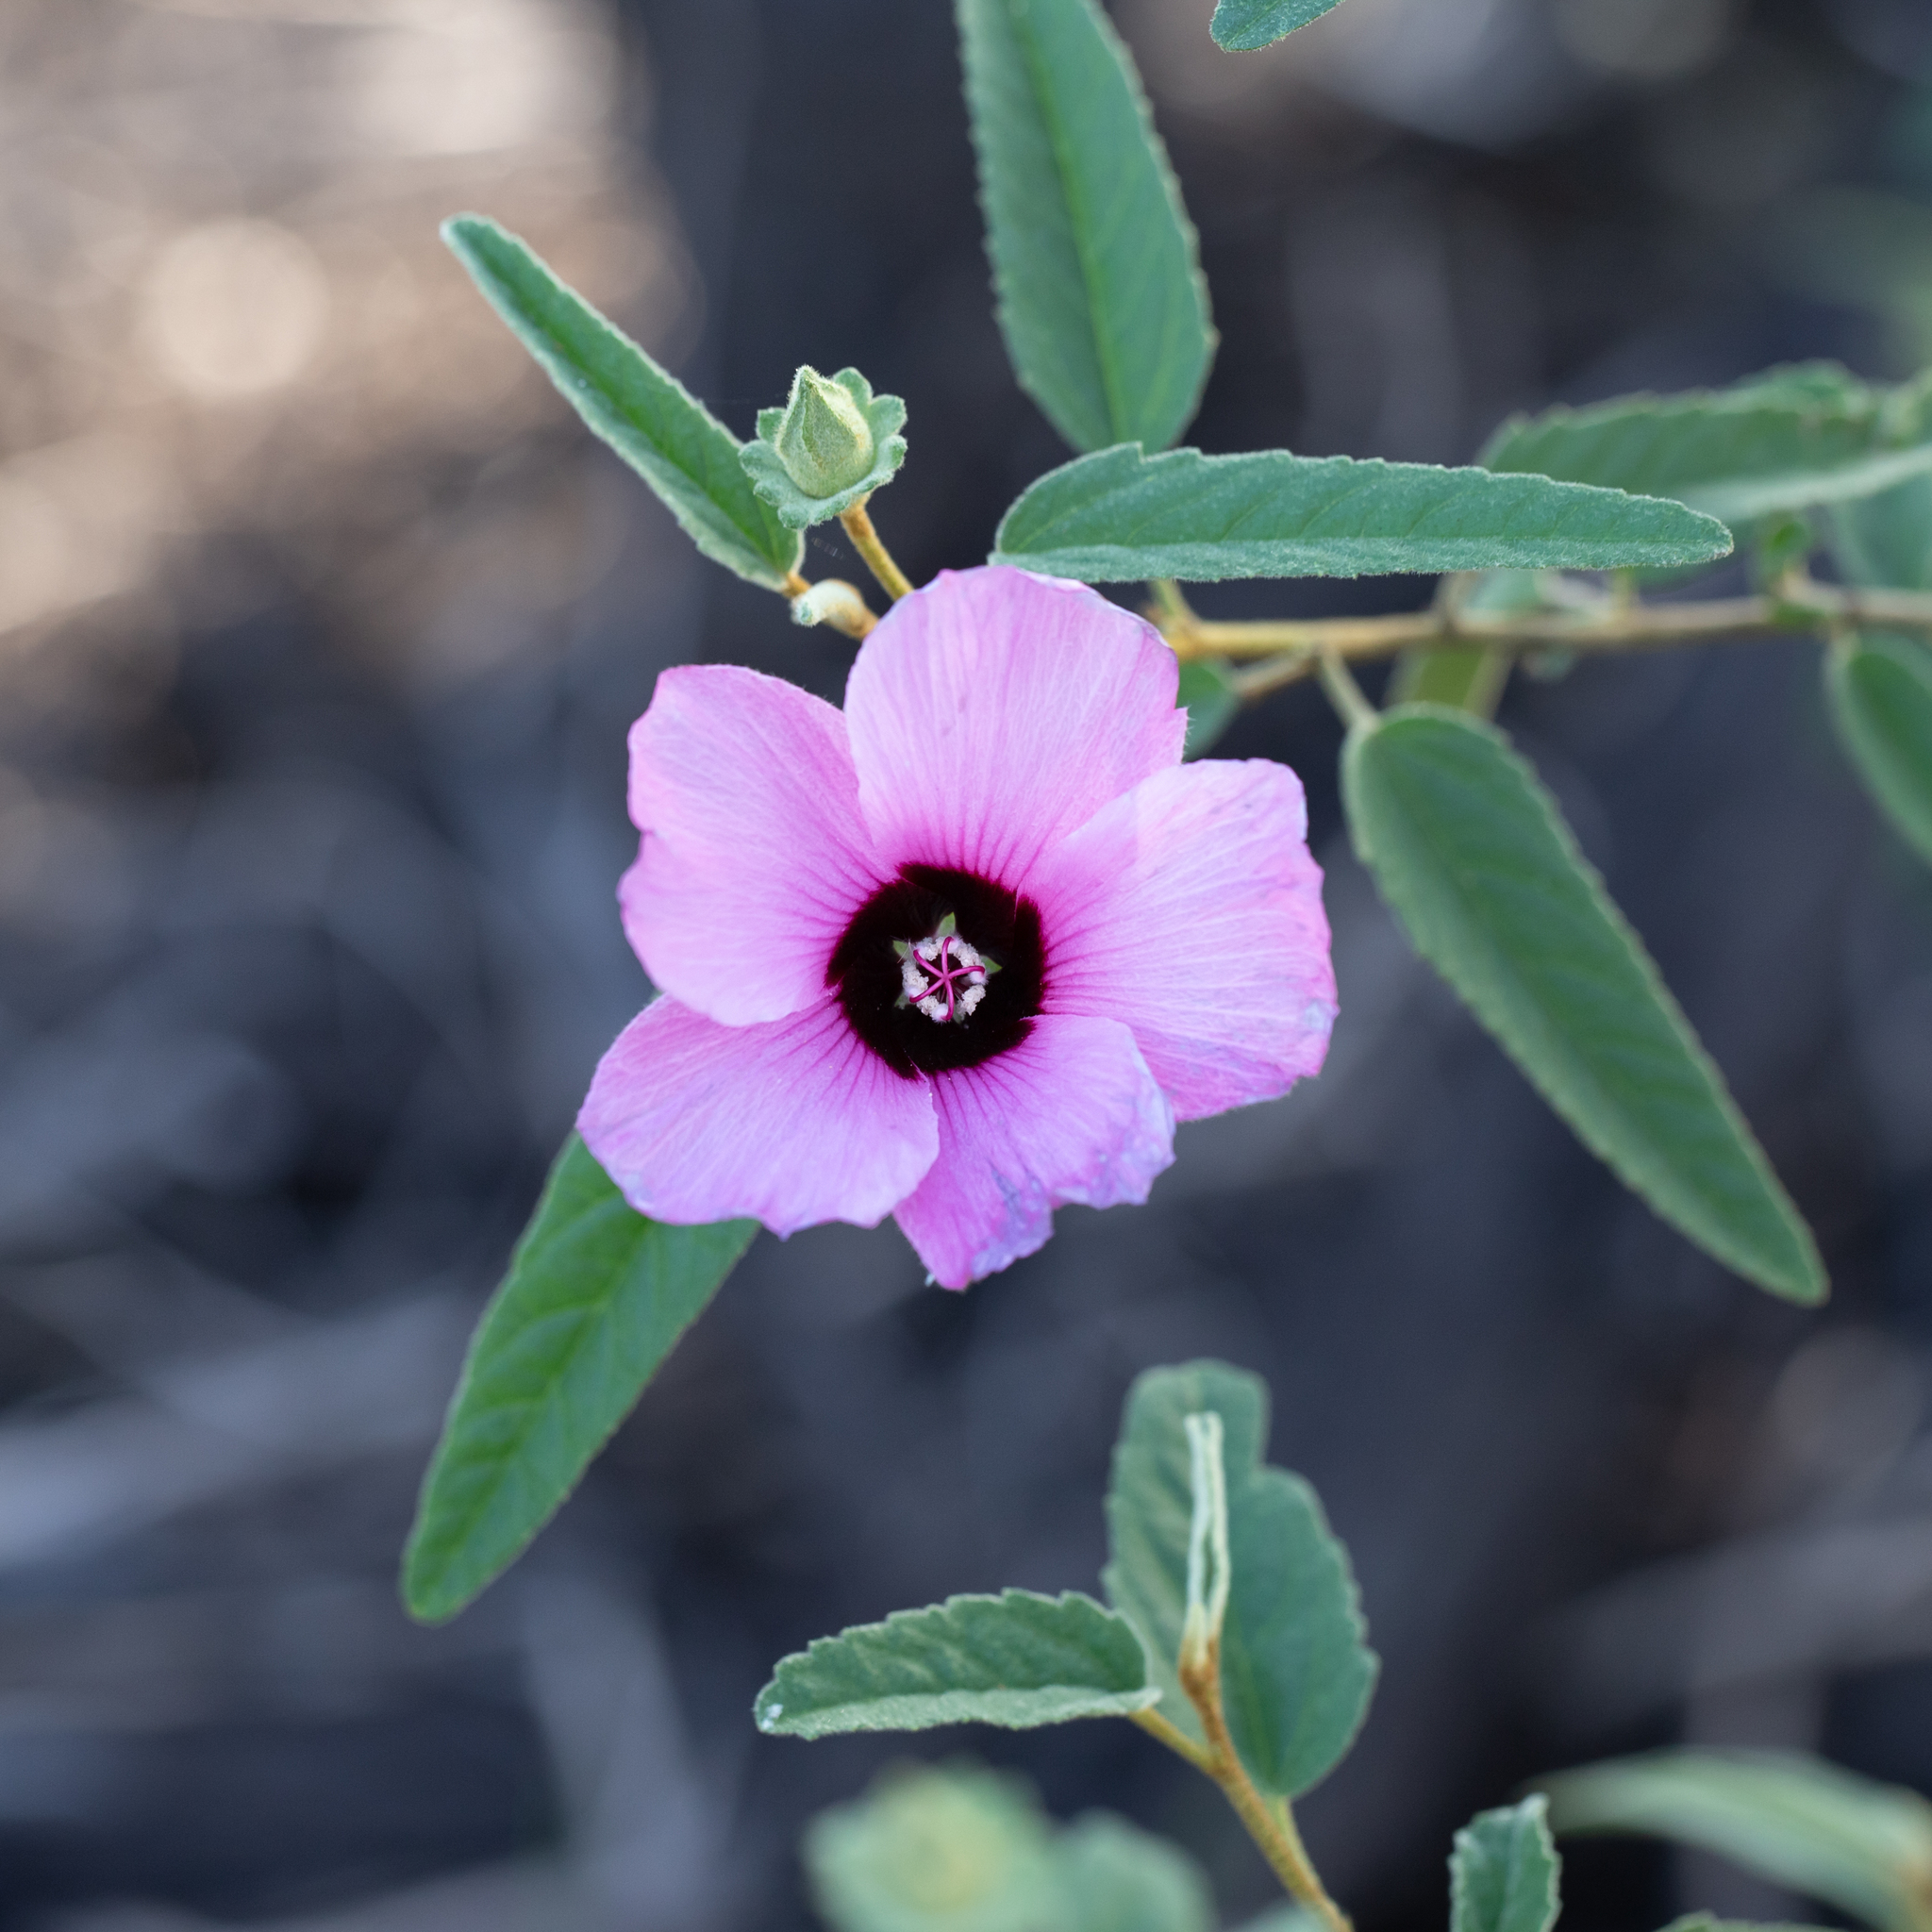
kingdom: Plantae
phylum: Tracheophyta
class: Magnoliopsida
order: Malvales
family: Malvaceae
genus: Hibiscus
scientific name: Hibiscus sturtii
